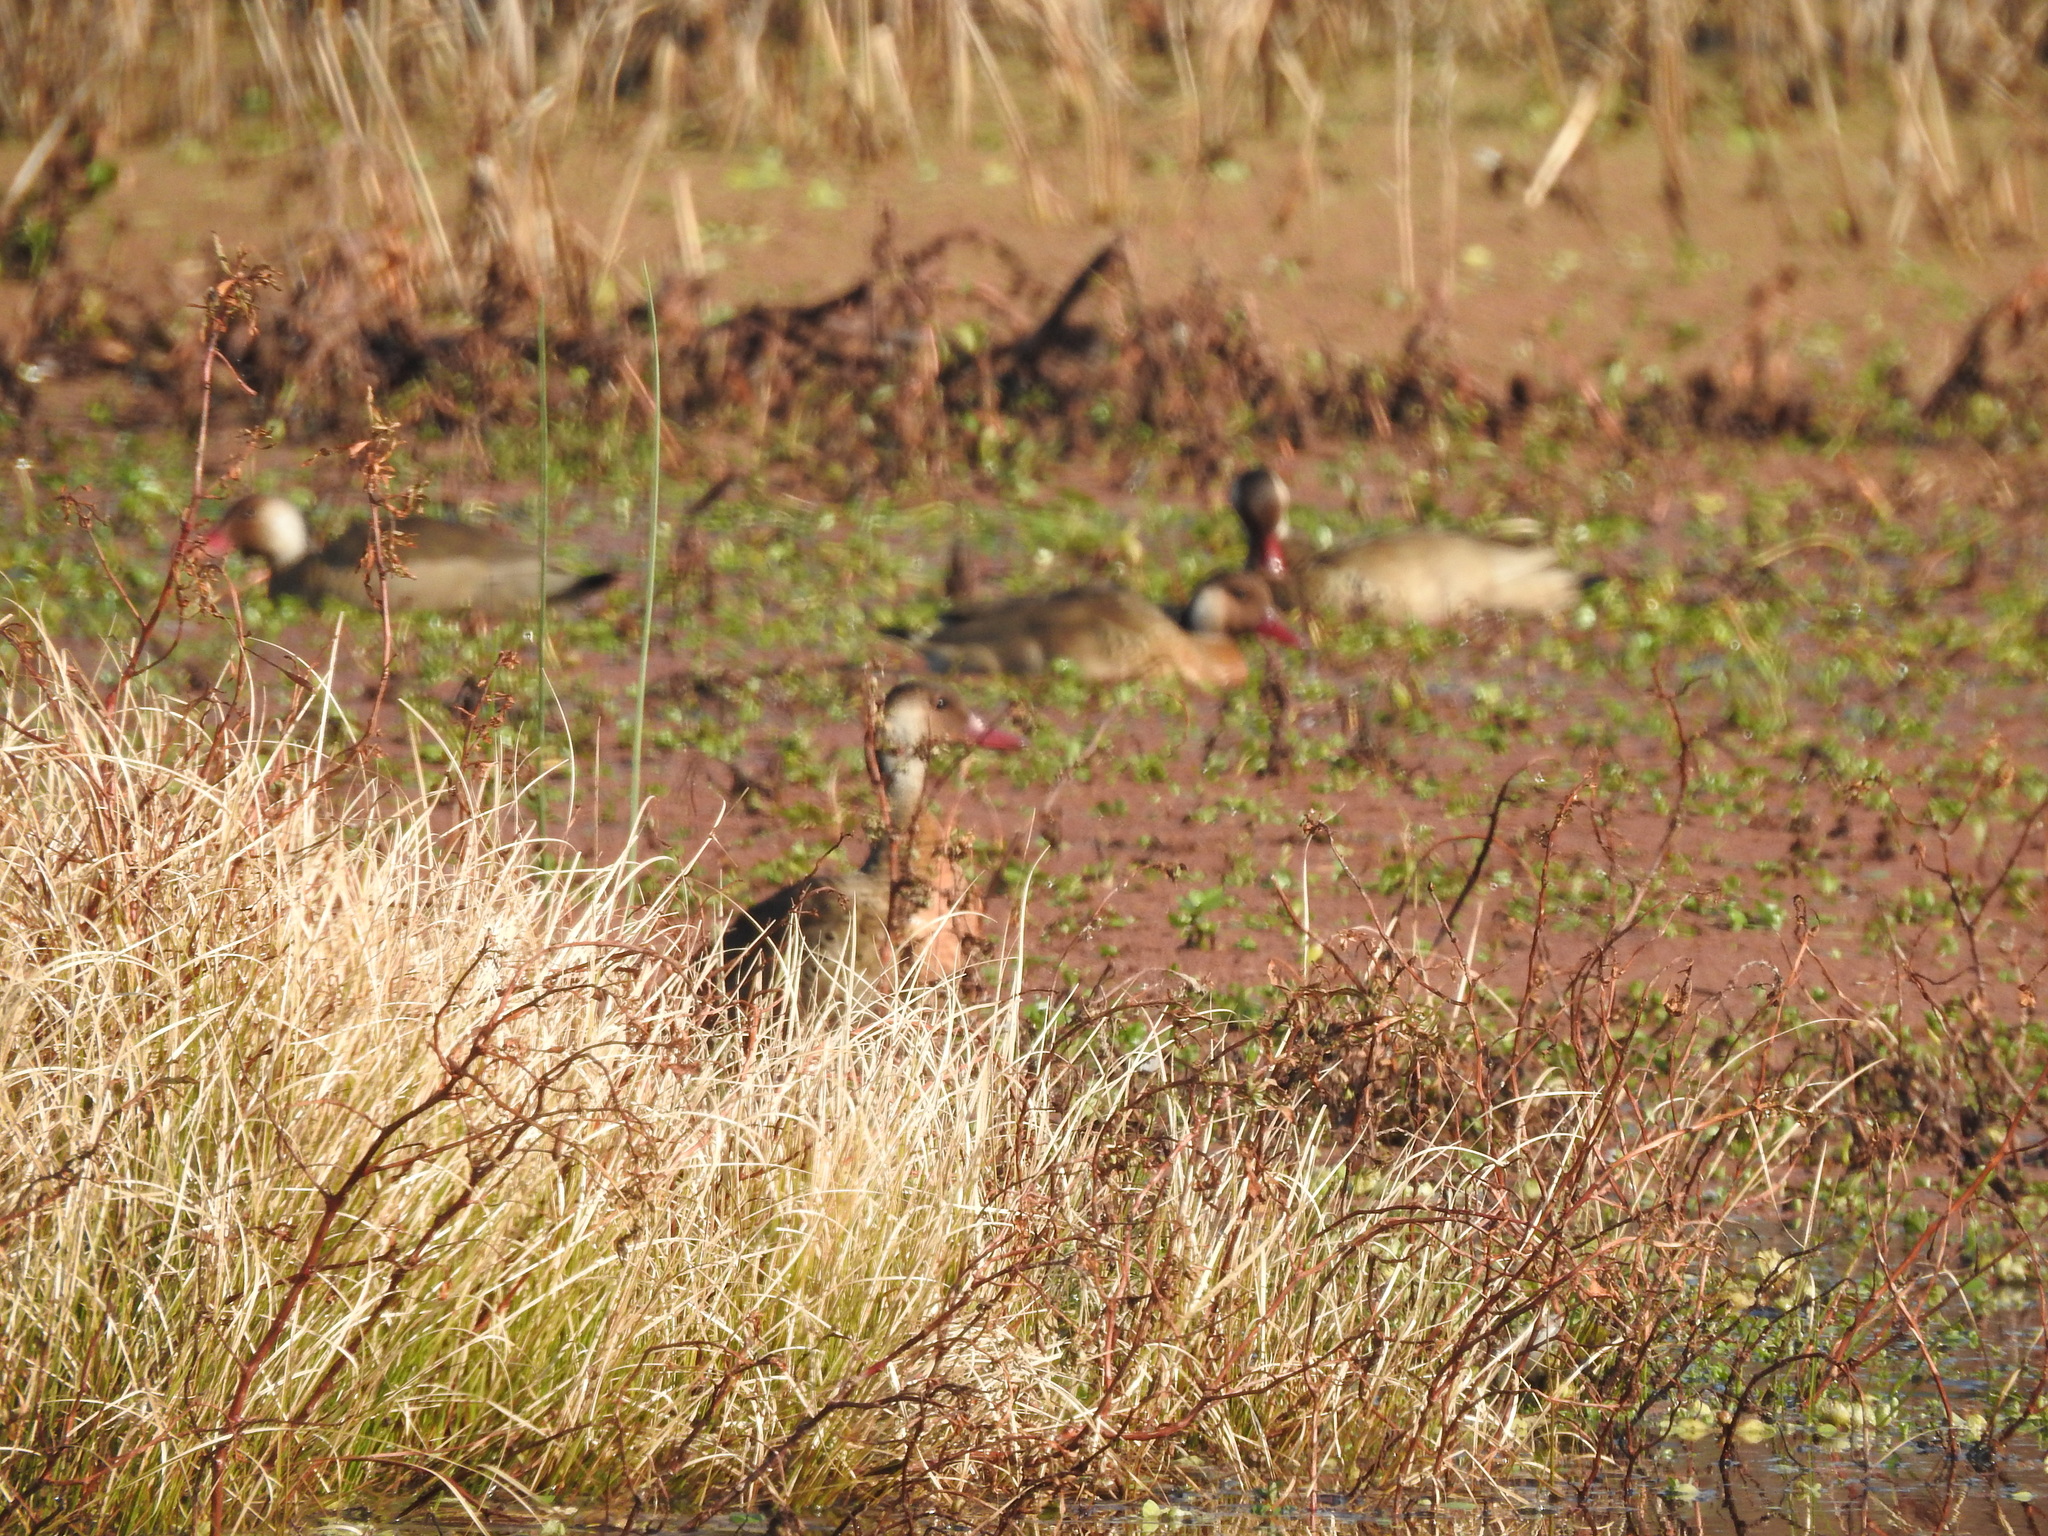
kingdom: Animalia
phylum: Chordata
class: Aves
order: Anseriformes
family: Anatidae
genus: Amazonetta
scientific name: Amazonetta brasiliensis
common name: Brazilian teal
